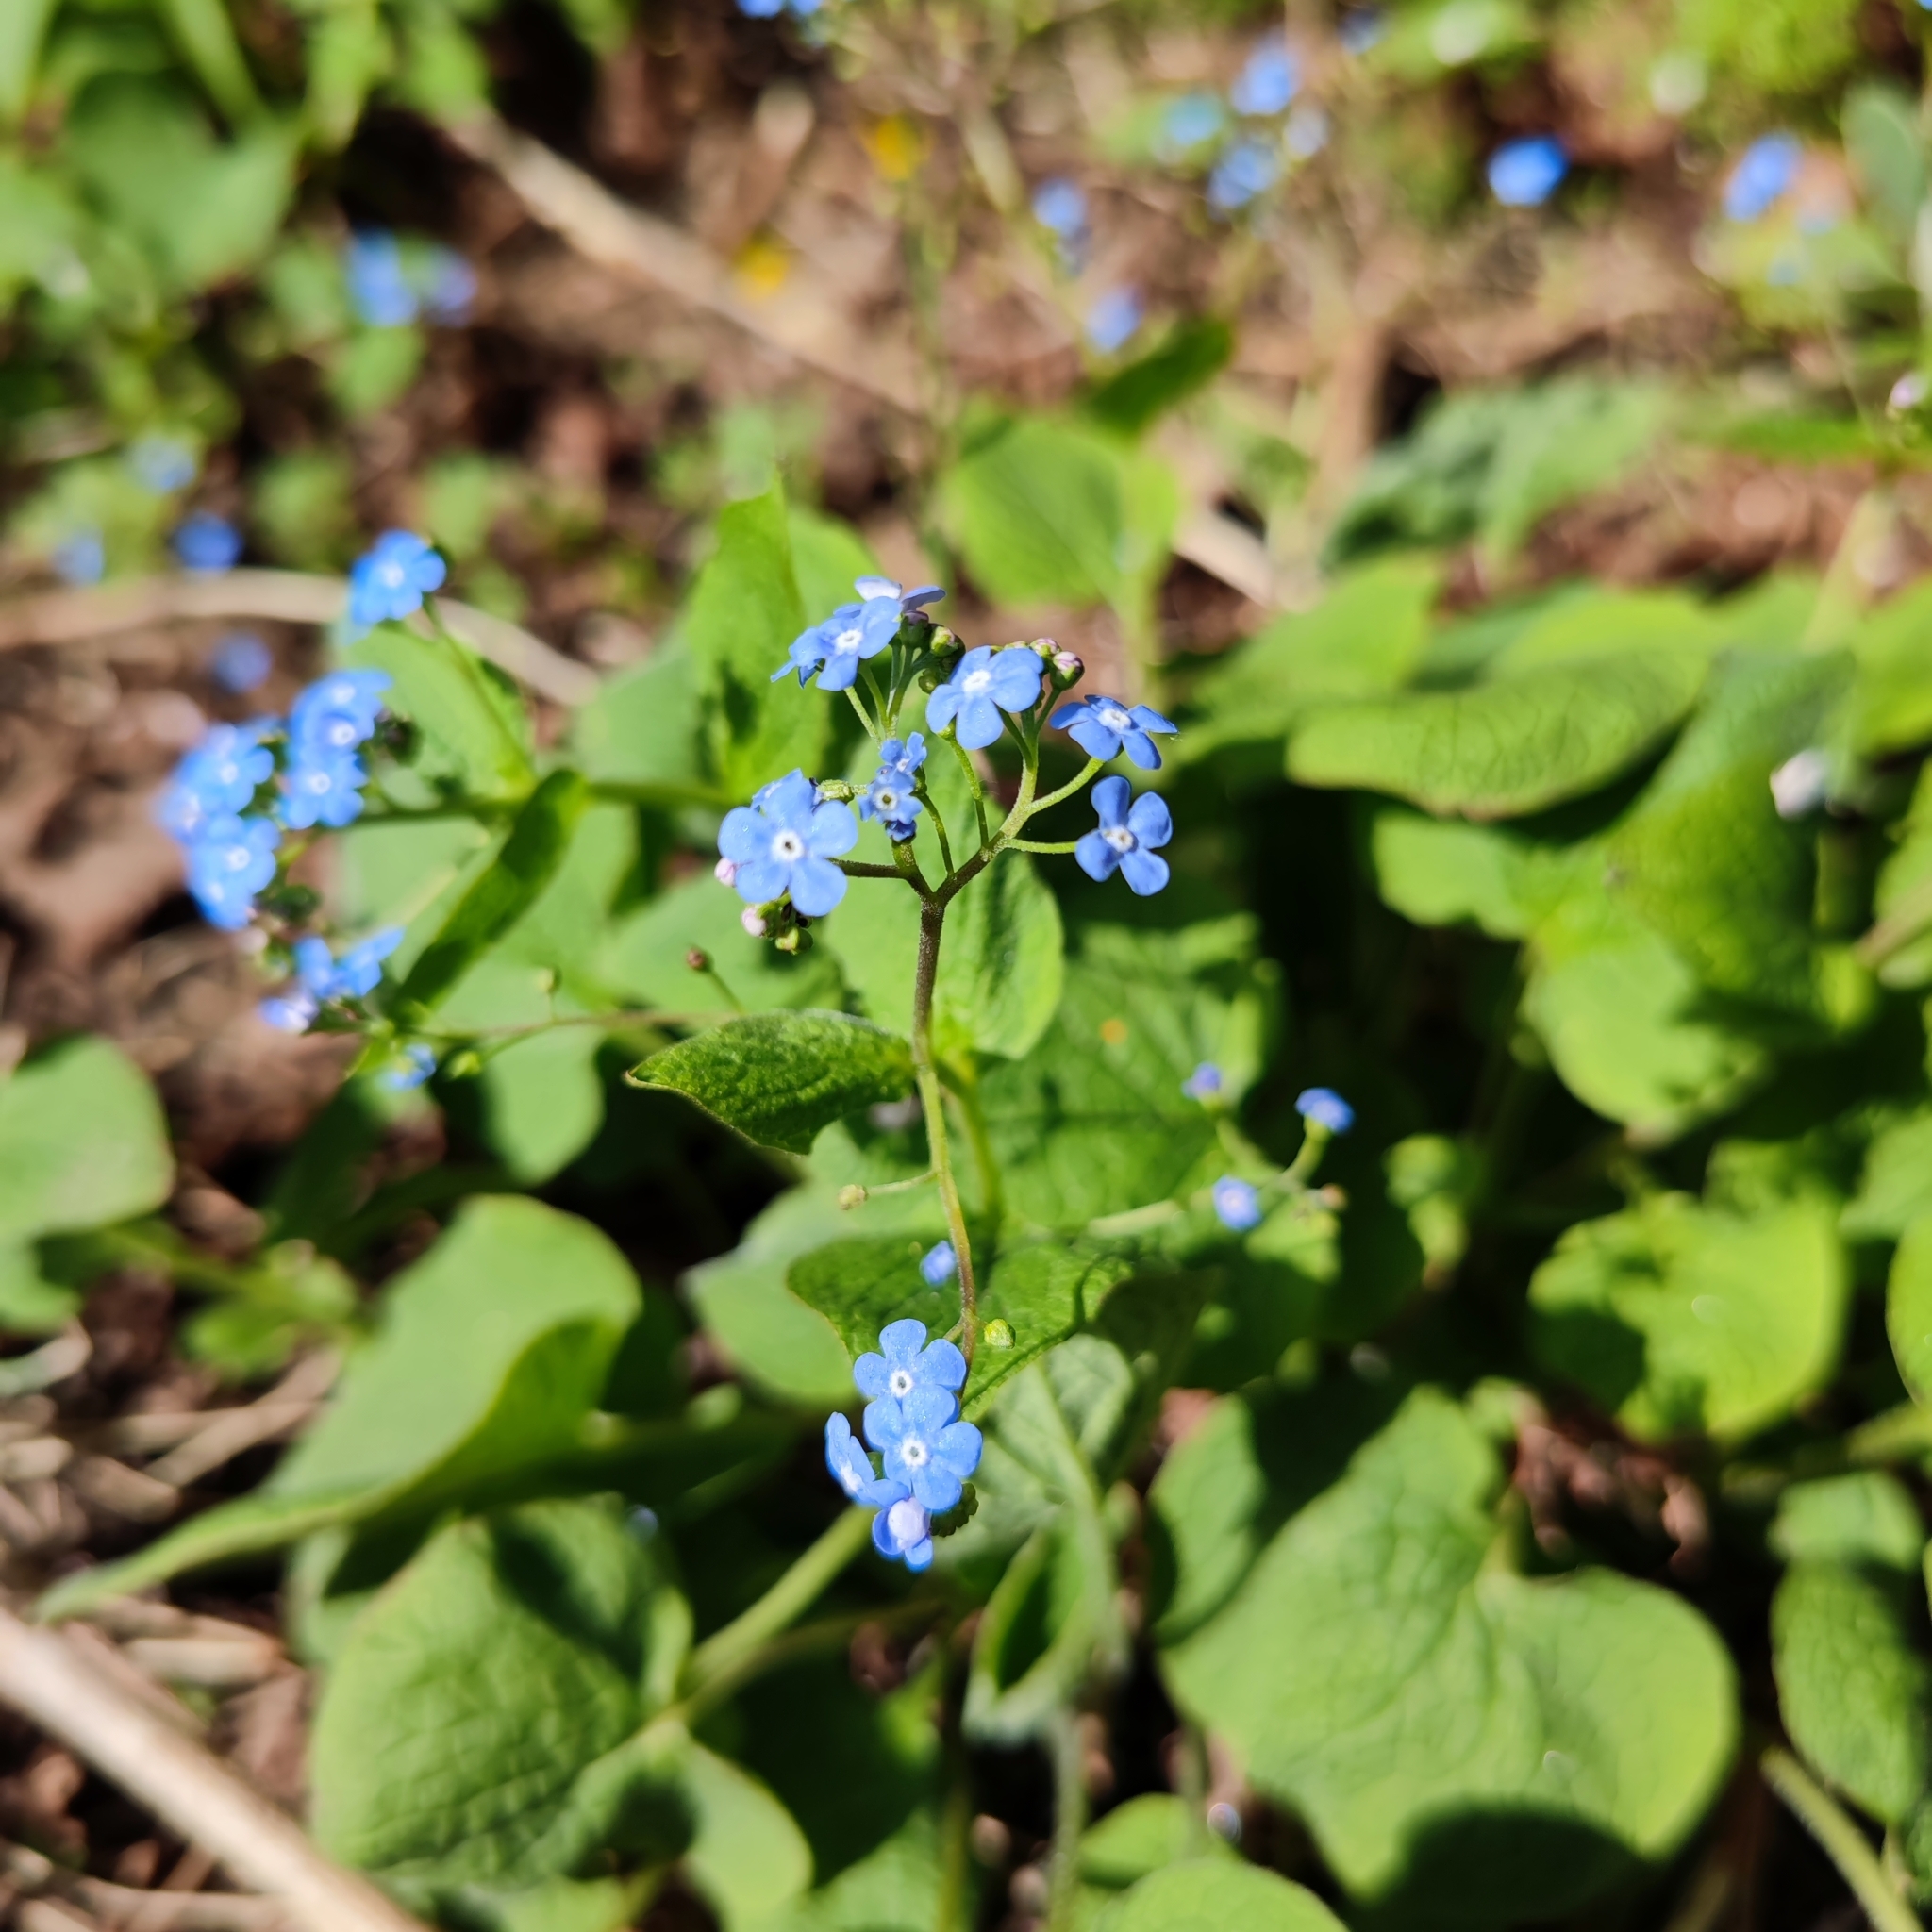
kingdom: Plantae
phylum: Tracheophyta
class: Magnoliopsida
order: Boraginales
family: Boraginaceae
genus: Brunnera
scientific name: Brunnera macrophylla
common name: Great forget-me-not
